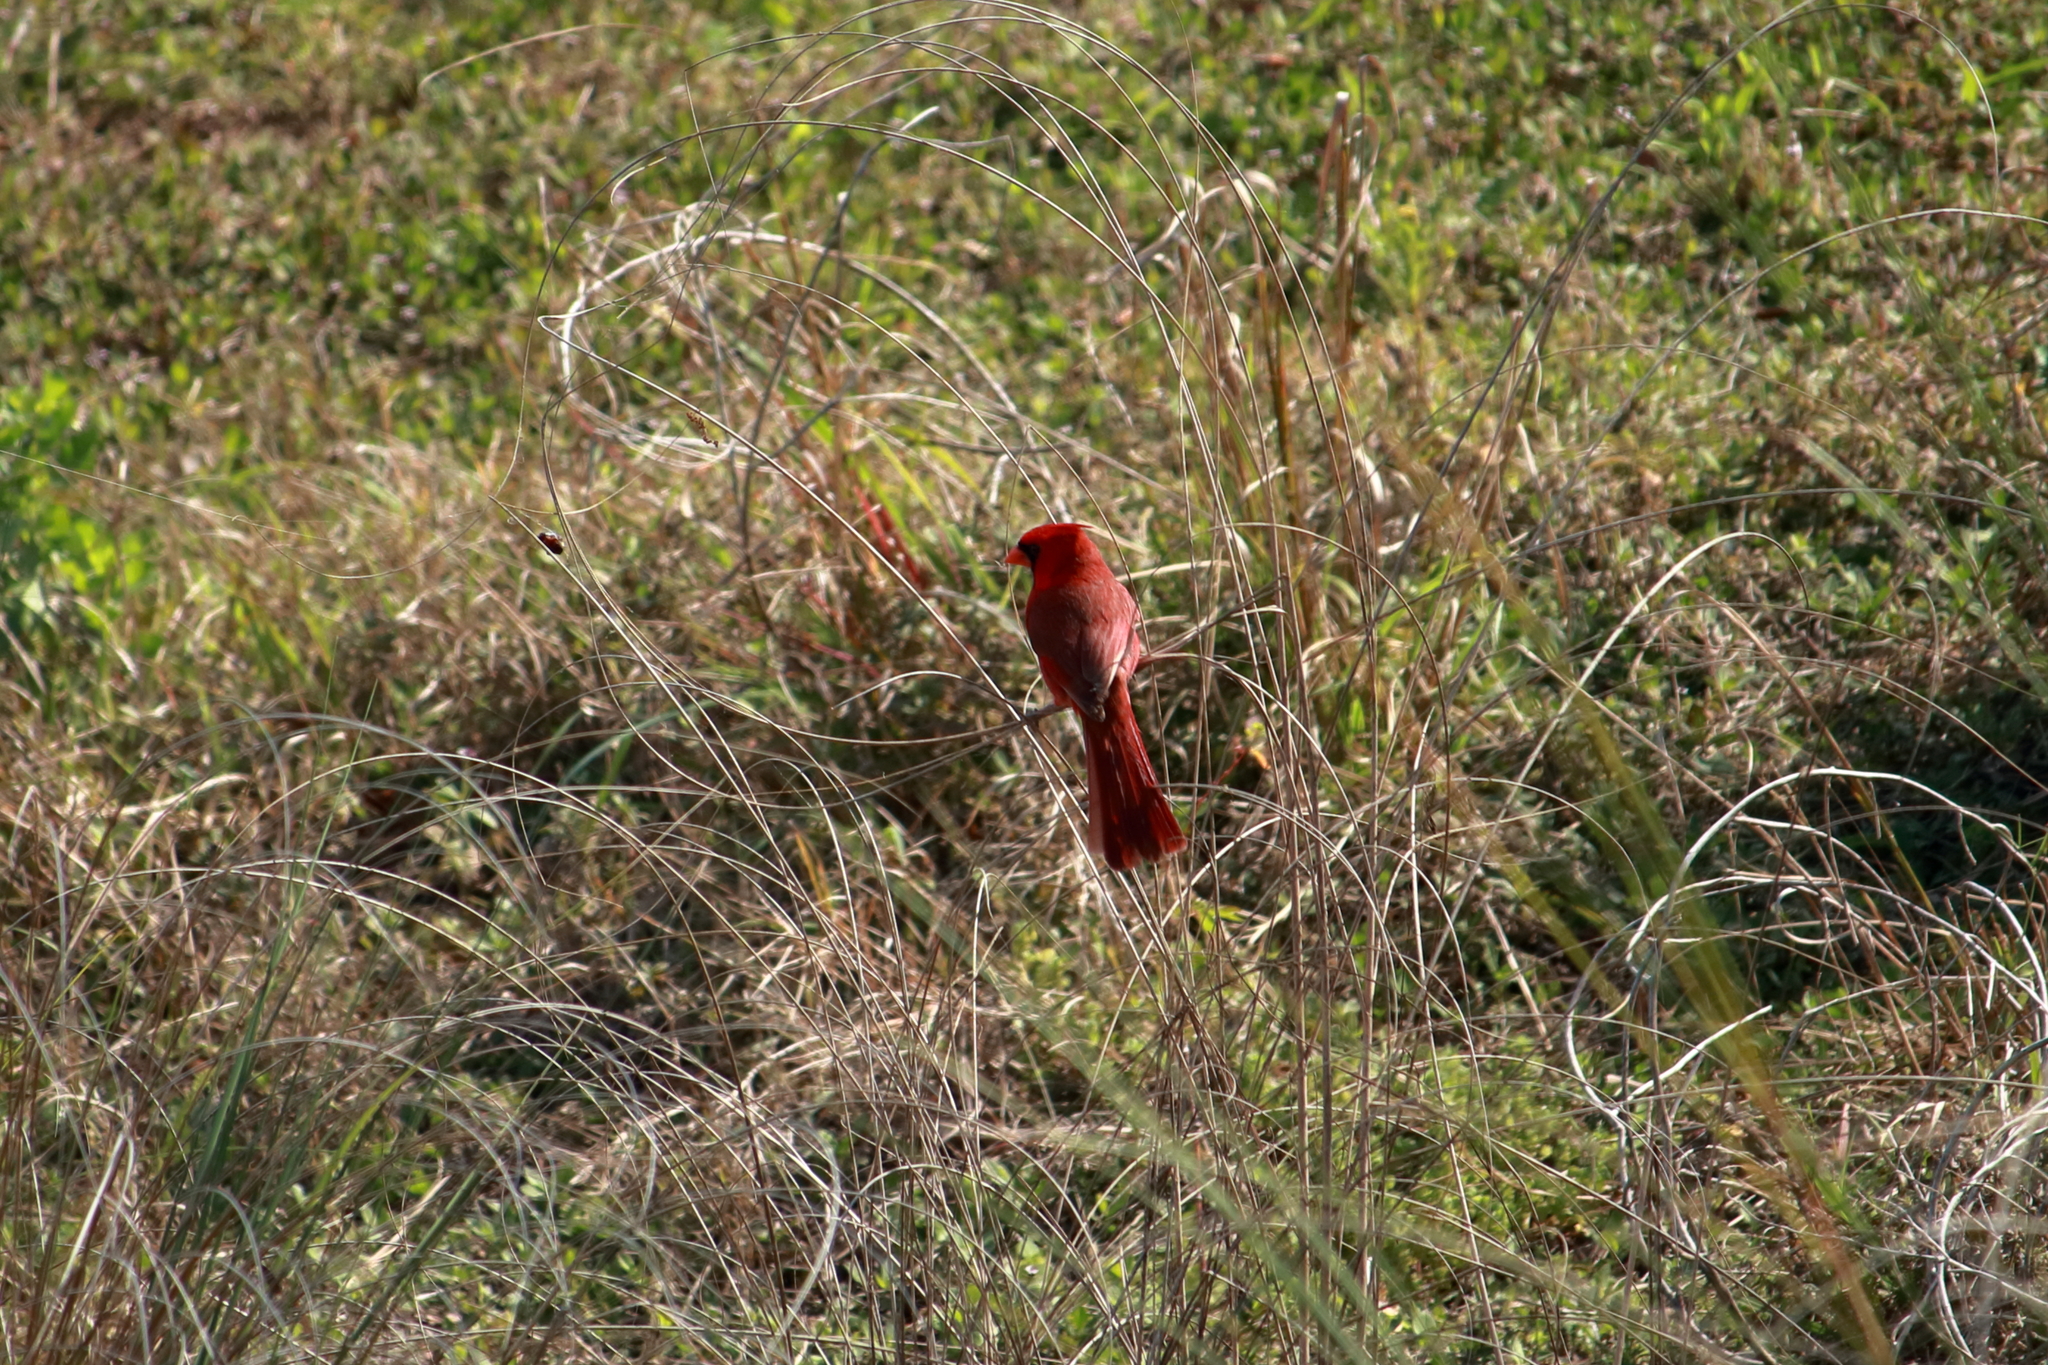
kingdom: Animalia
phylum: Chordata
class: Aves
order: Passeriformes
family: Cardinalidae
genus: Cardinalis
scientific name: Cardinalis cardinalis
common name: Northern cardinal
